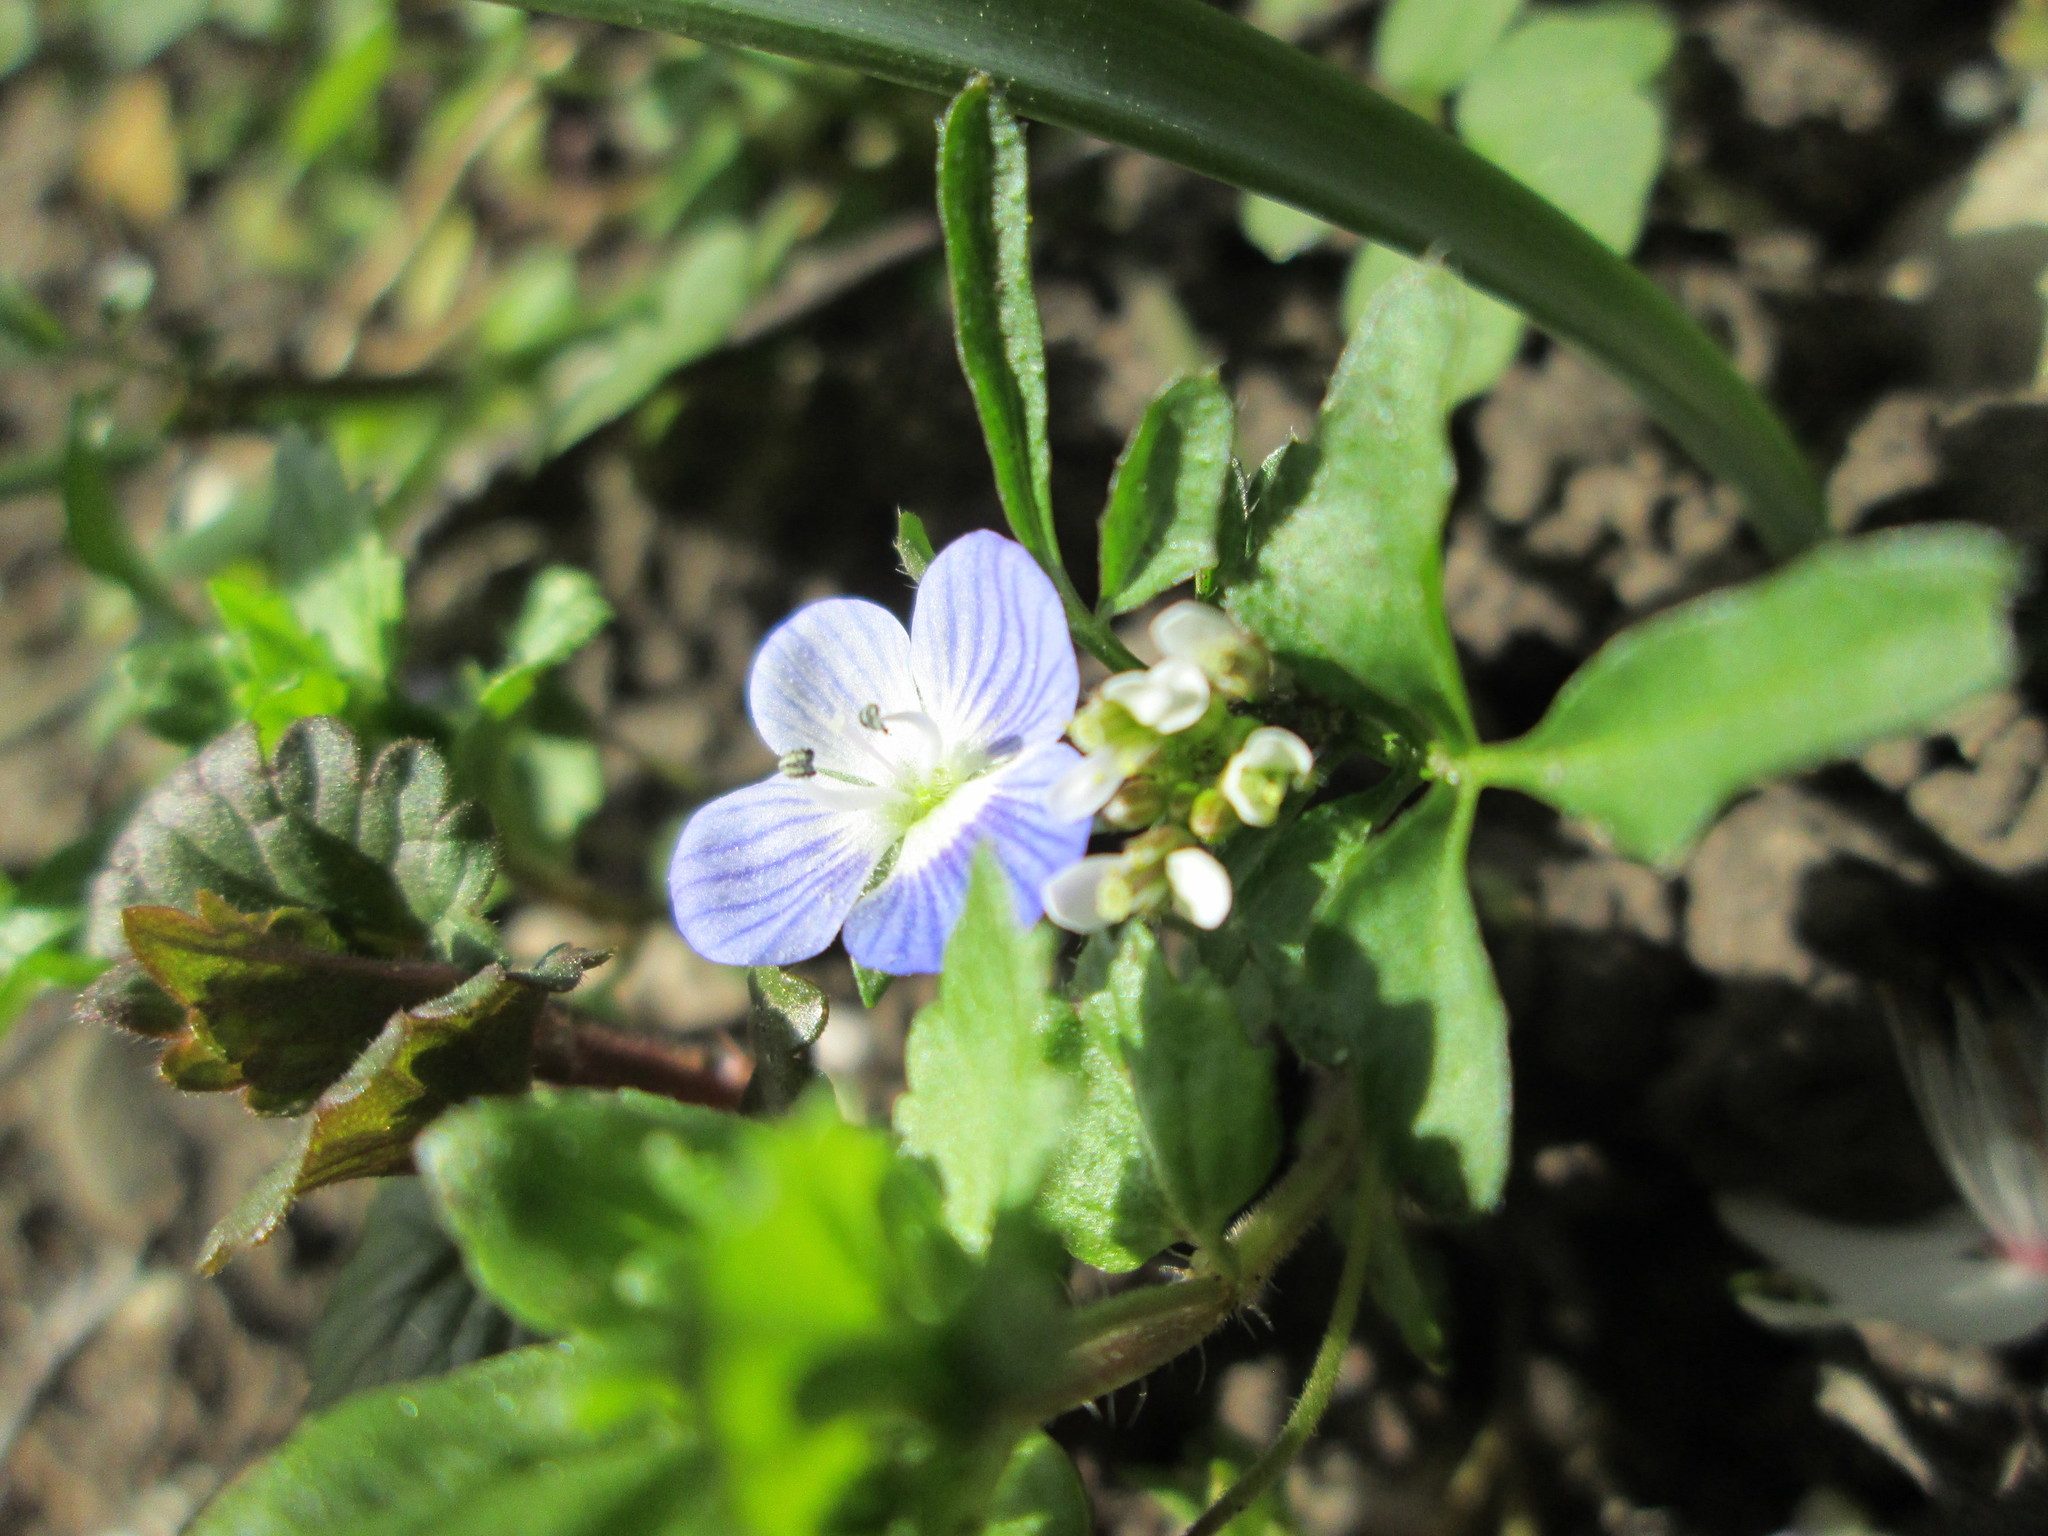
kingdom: Plantae
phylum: Tracheophyta
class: Magnoliopsida
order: Lamiales
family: Plantaginaceae
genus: Veronica
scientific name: Veronica persica
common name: Common field-speedwell
